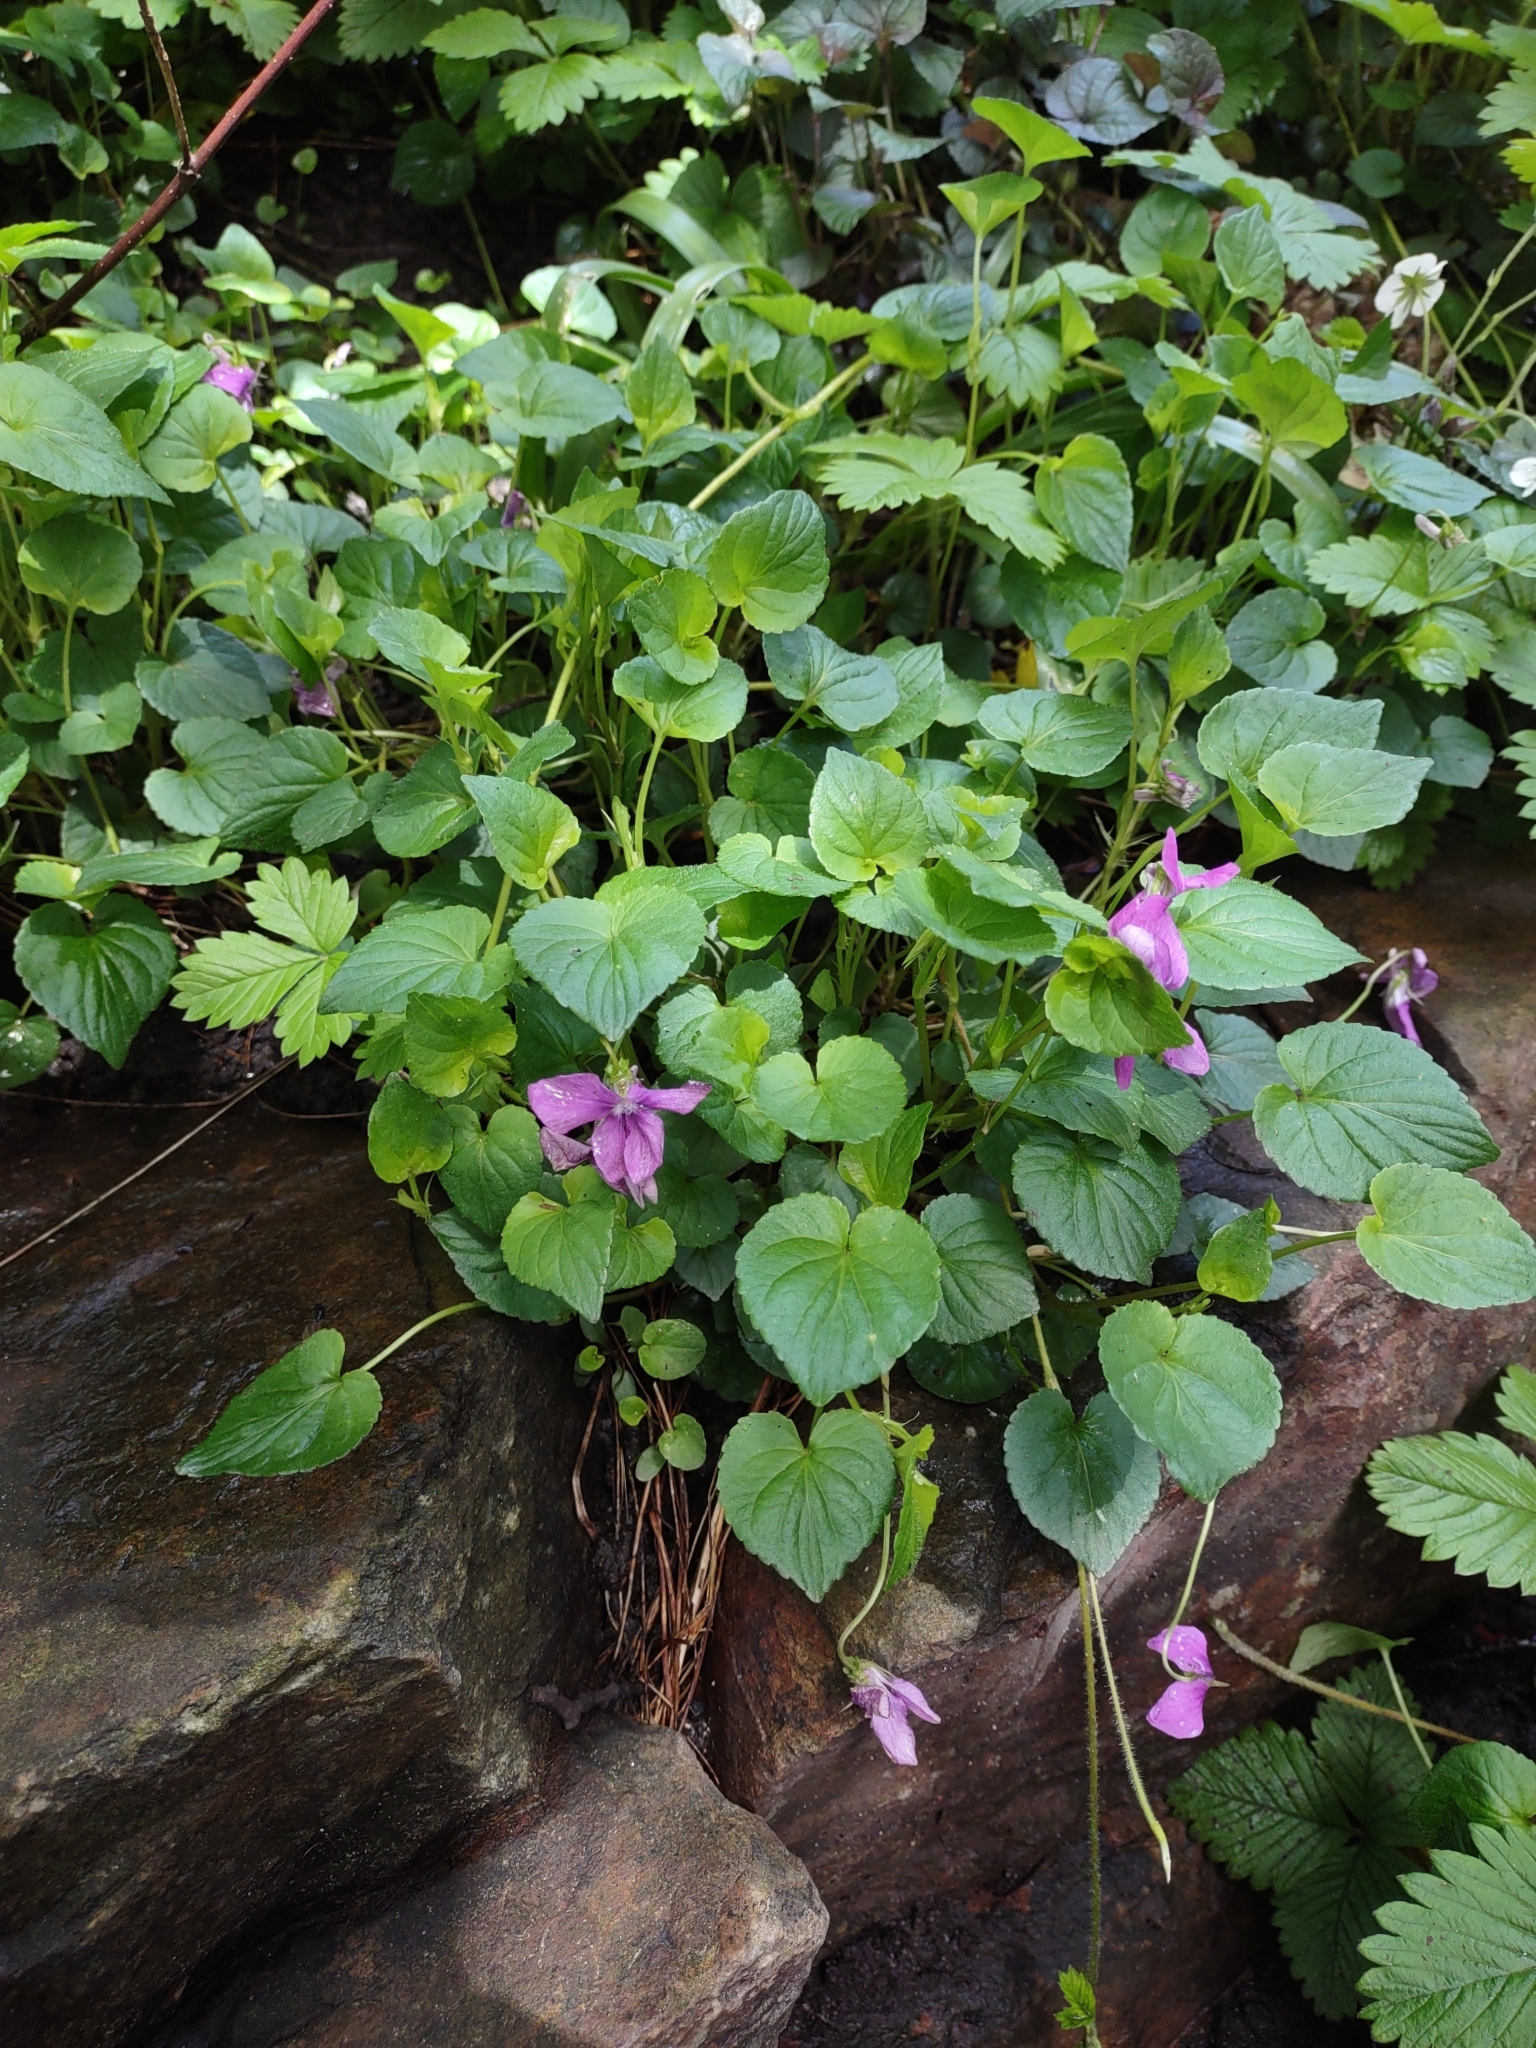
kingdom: Plantae
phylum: Tracheophyta
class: Magnoliopsida
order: Malpighiales
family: Violaceae
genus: Viola
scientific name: Viola riviniana
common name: Common dog-violet
